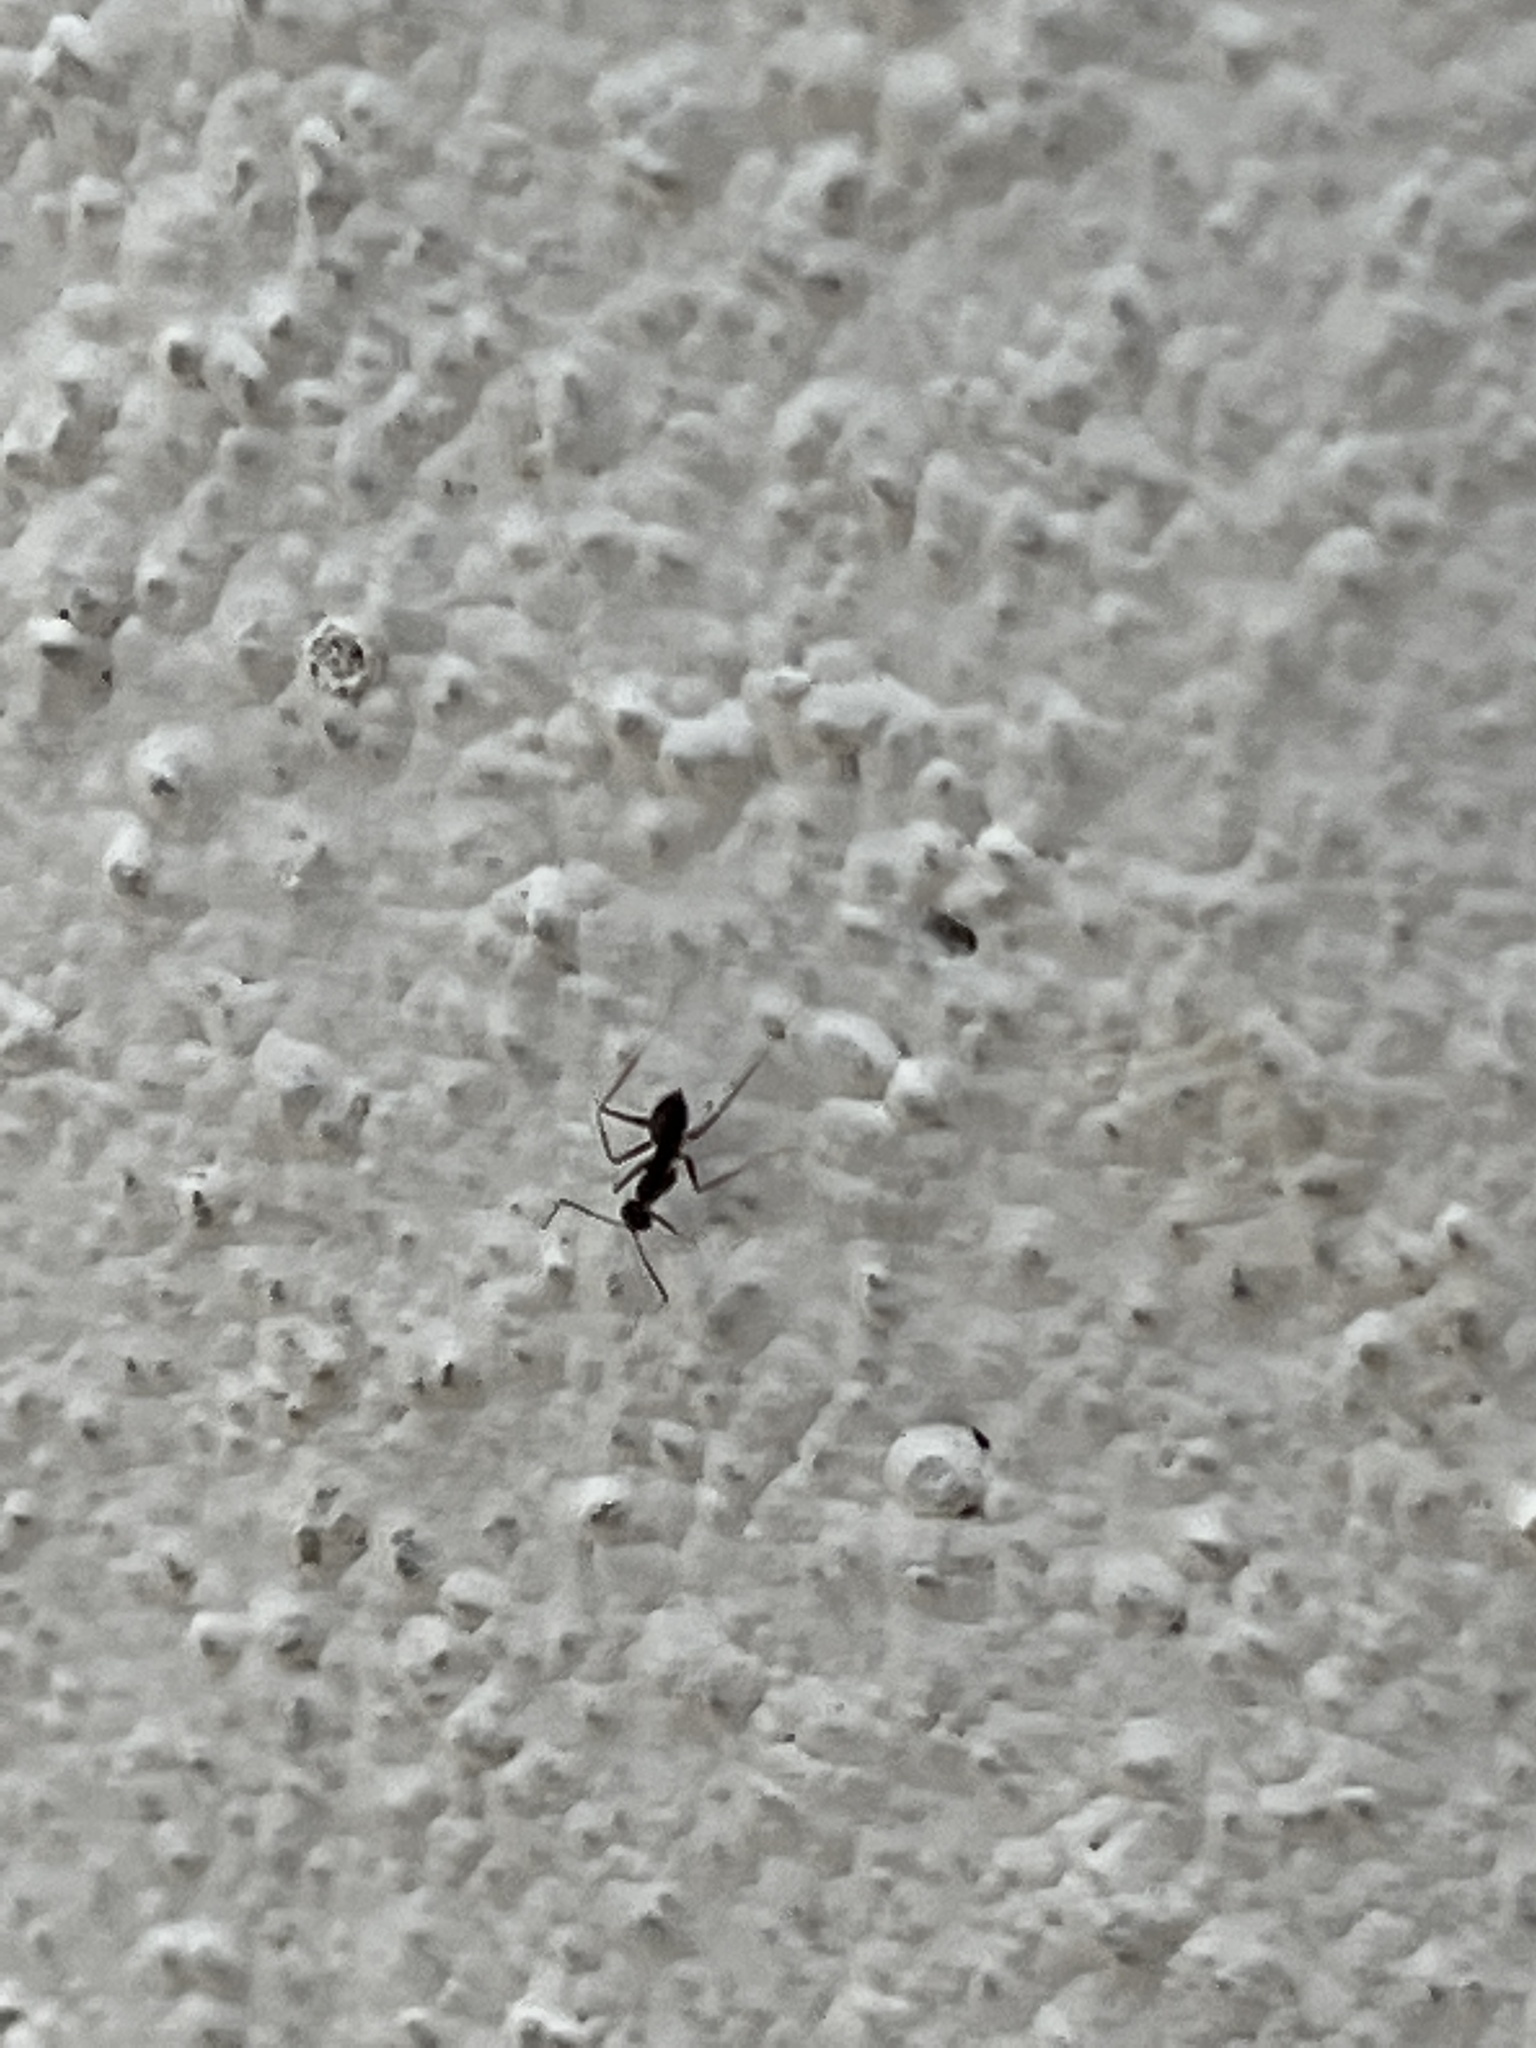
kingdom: Animalia
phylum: Arthropoda
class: Insecta
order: Hymenoptera
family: Formicidae
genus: Paratrechina
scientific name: Paratrechina longicornis
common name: Longhorned crazy ant
